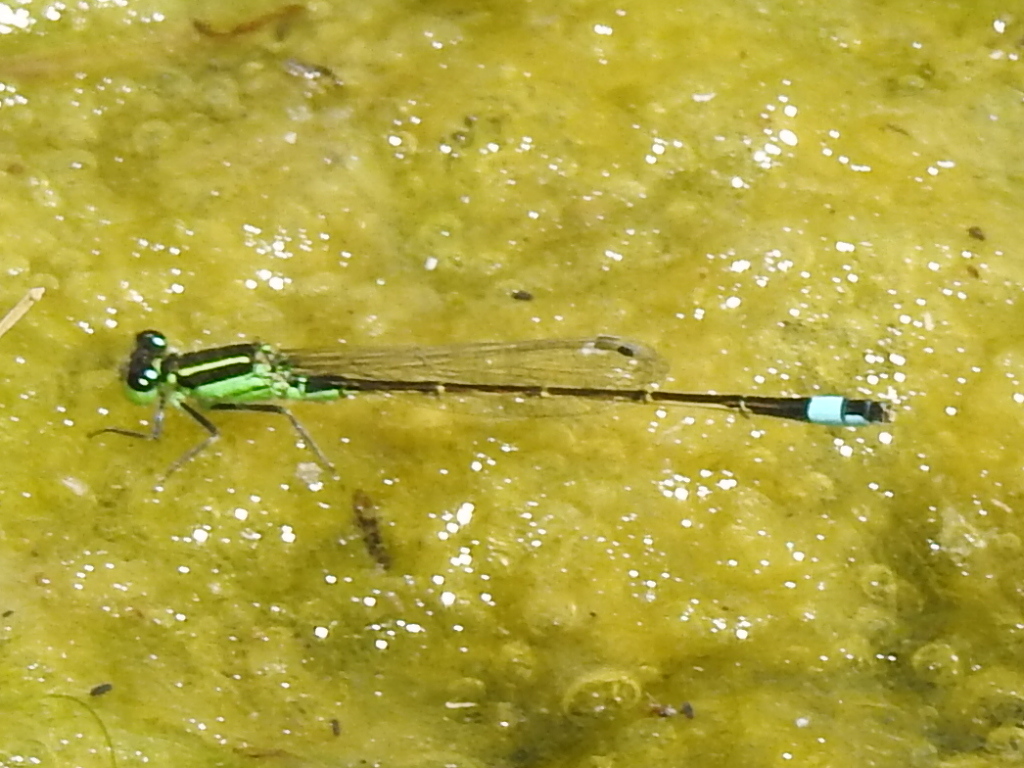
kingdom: Animalia
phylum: Arthropoda
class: Insecta
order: Odonata
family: Coenagrionidae
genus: Ischnura
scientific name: Ischnura ramburii
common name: Rambur's forktail
